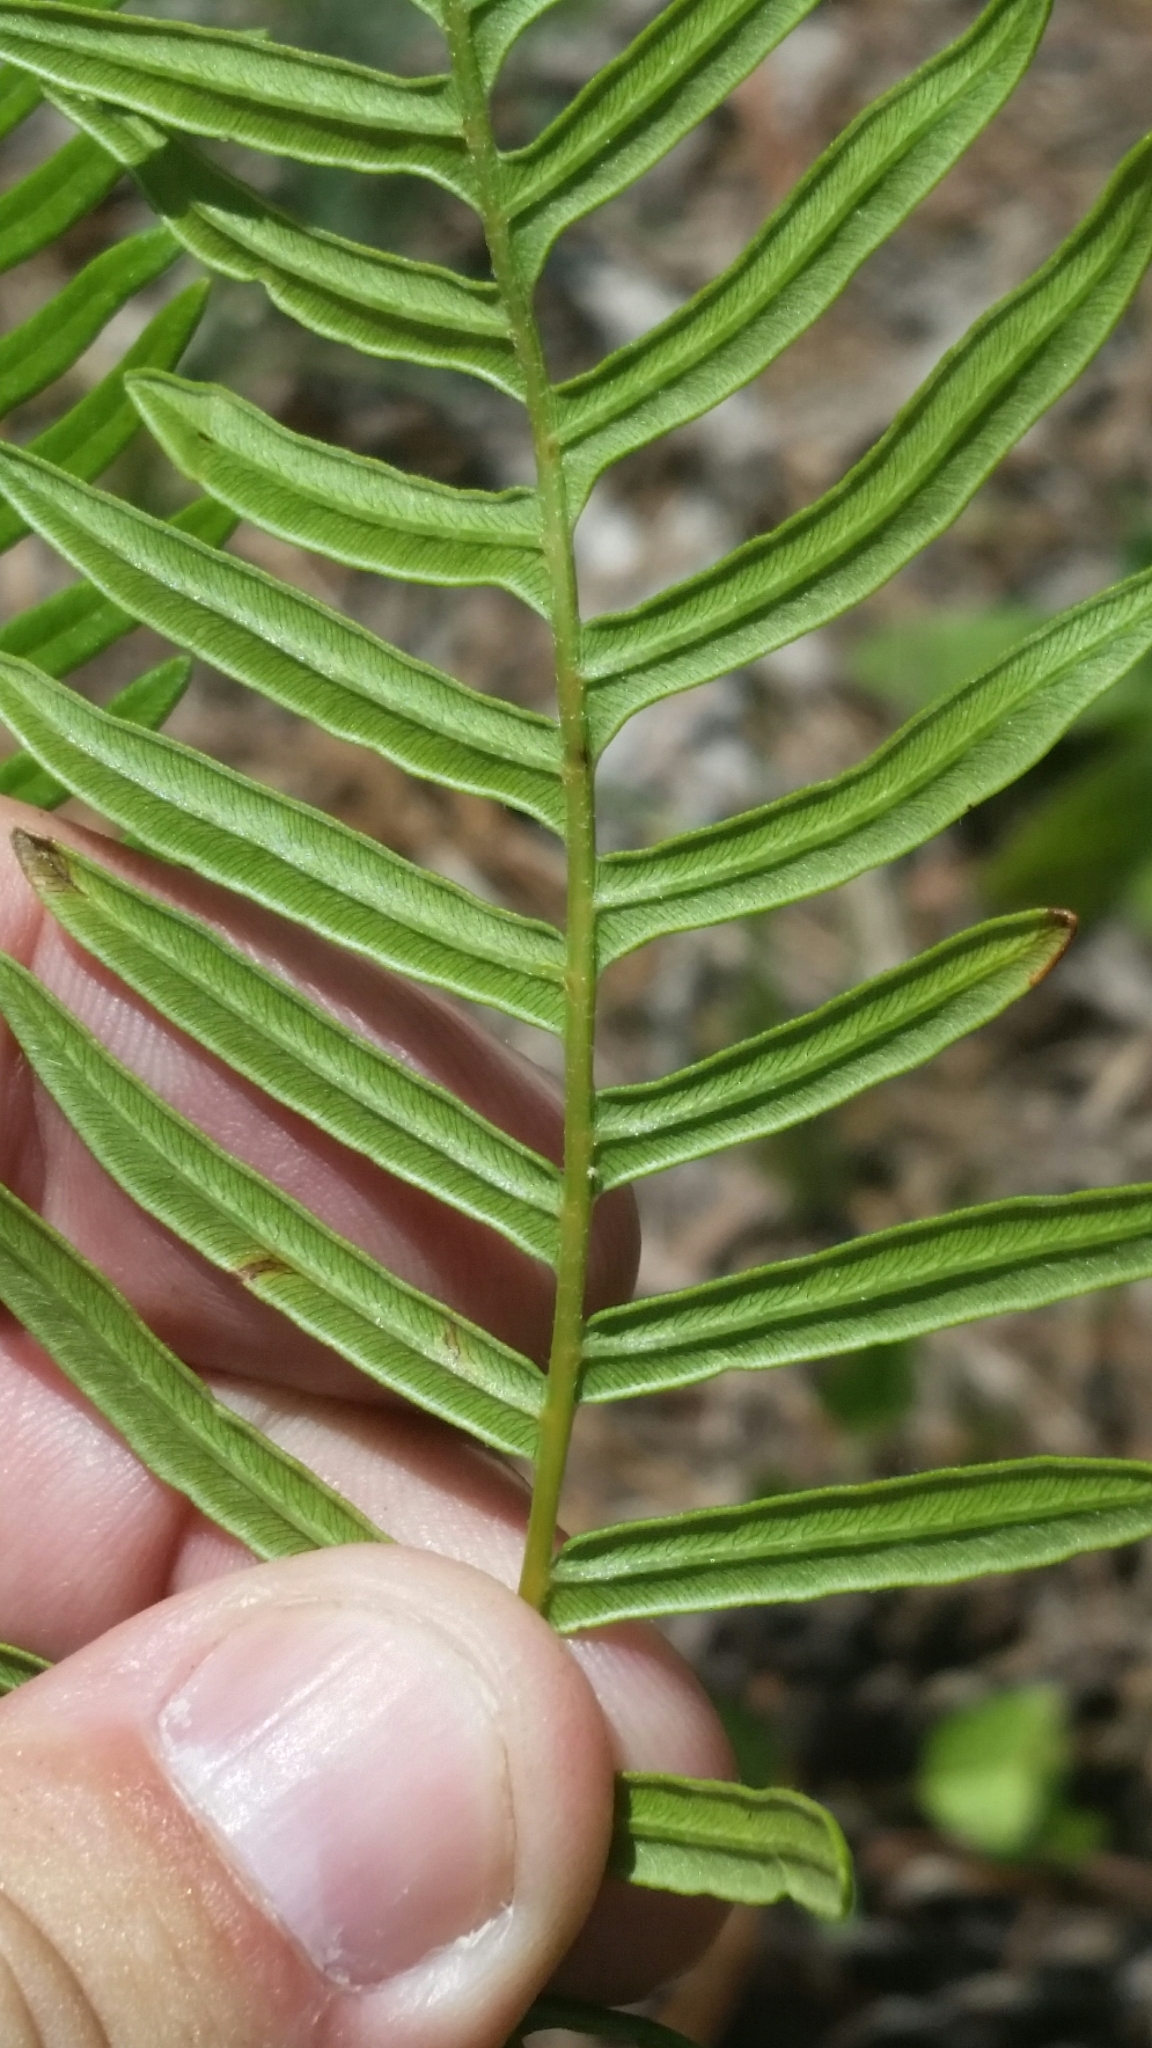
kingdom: Plantae
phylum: Tracheophyta
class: Polypodiopsida
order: Polypodiales
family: Dennstaedtiaceae
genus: Pteridium
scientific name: Pteridium
